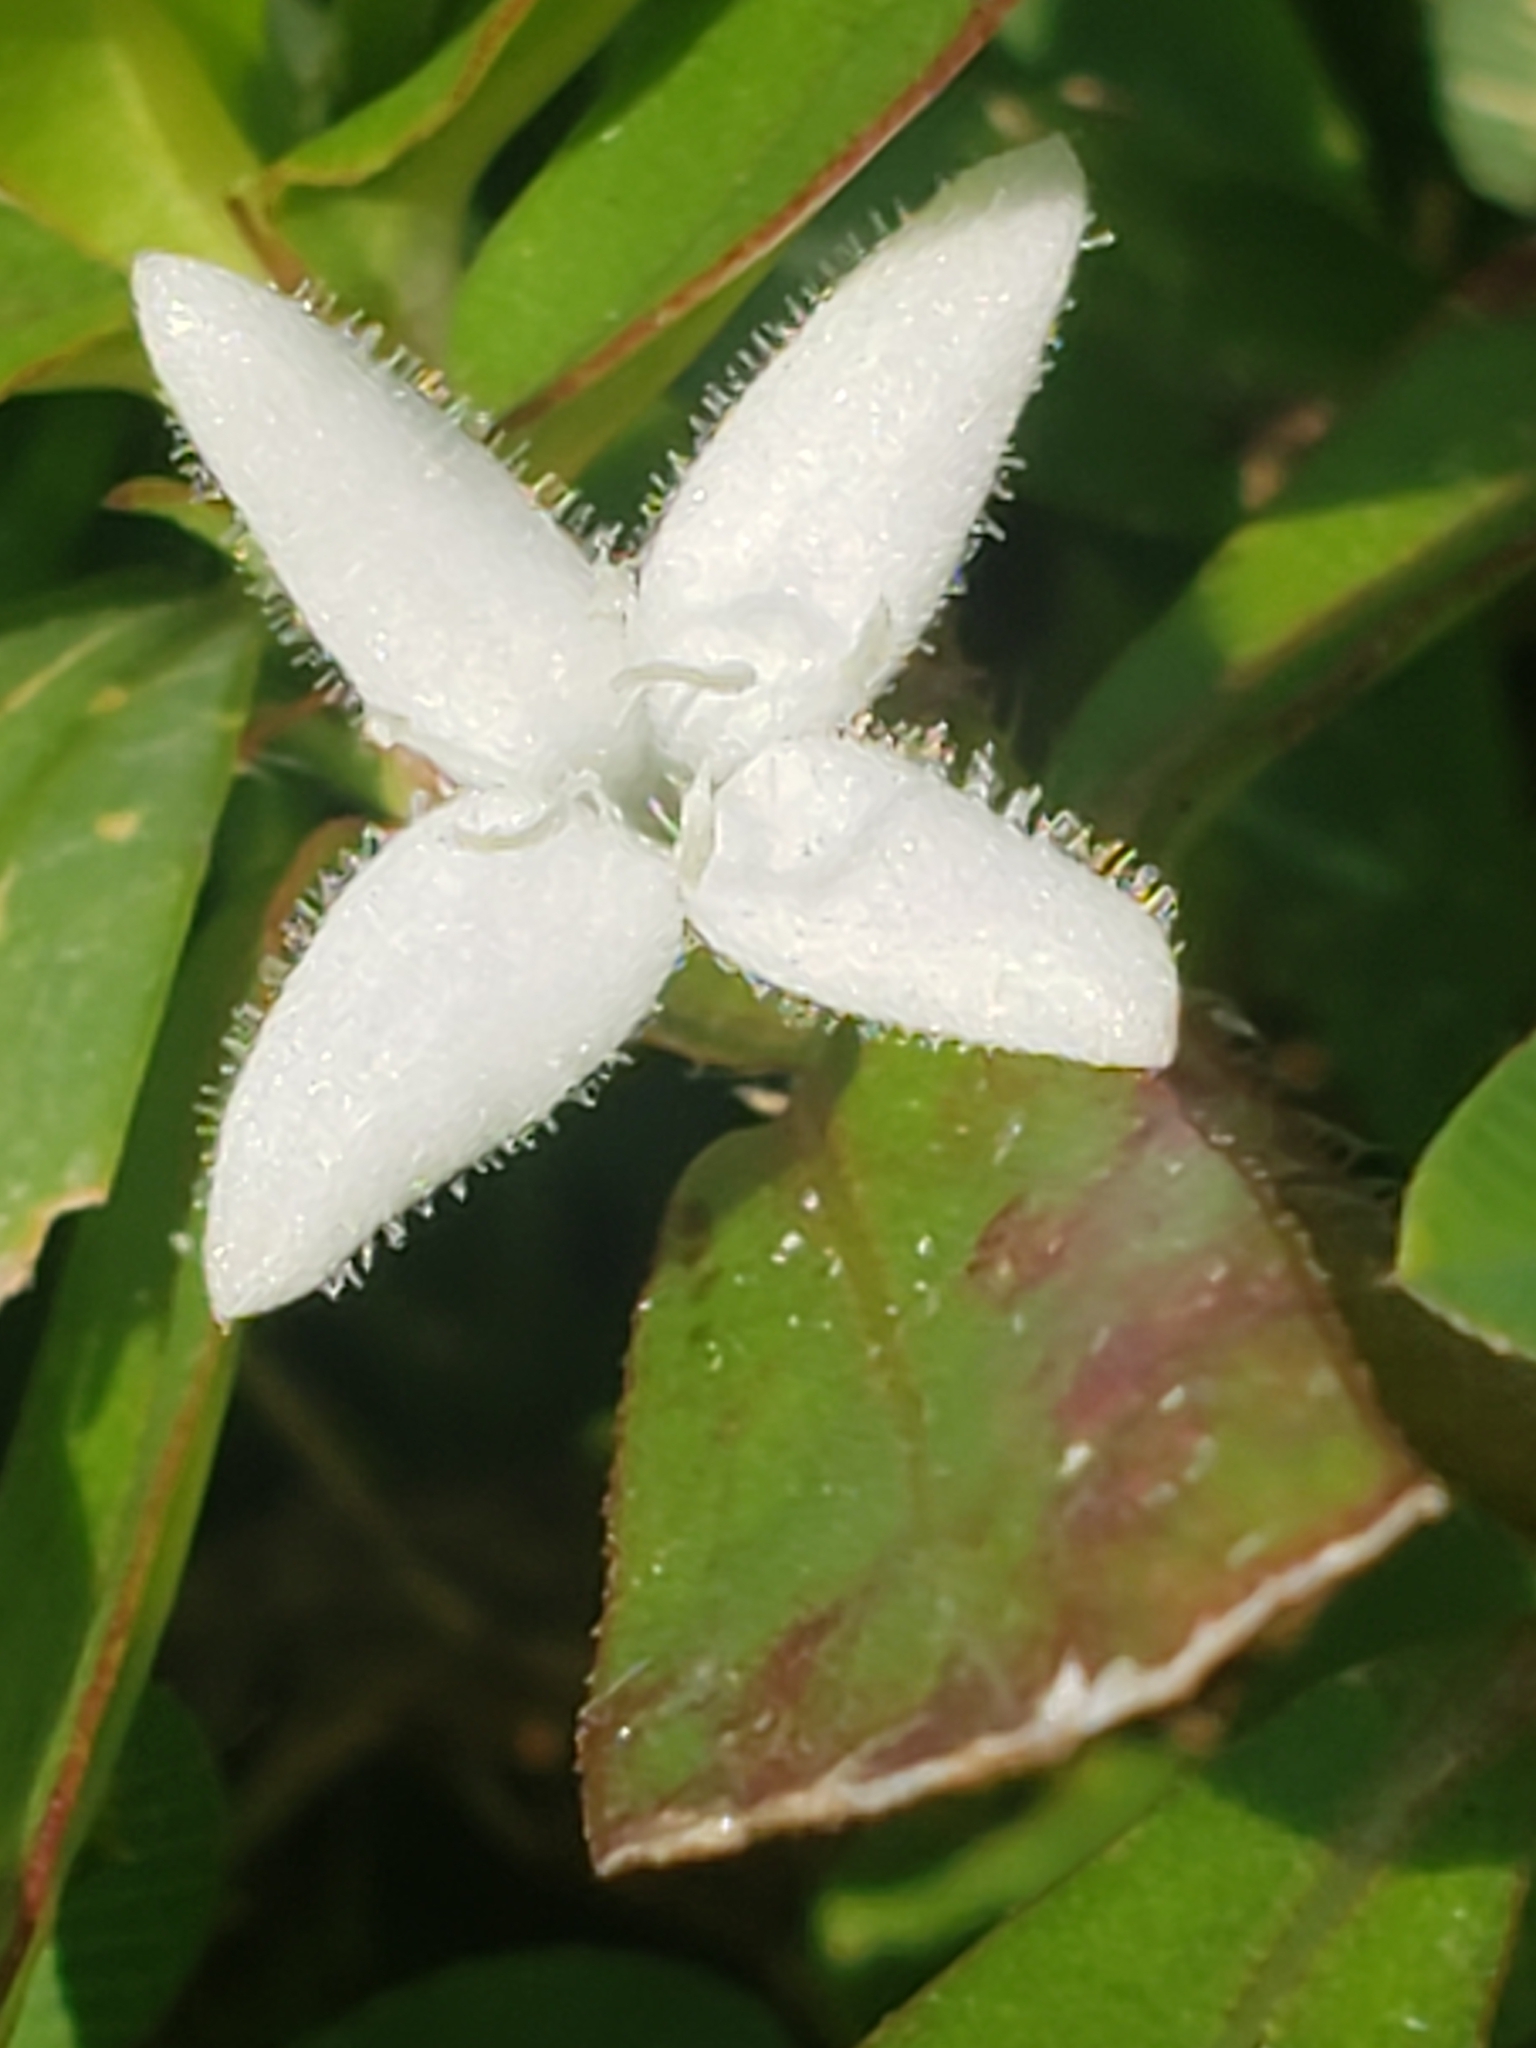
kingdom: Plantae
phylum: Tracheophyta
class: Magnoliopsida
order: Gentianales
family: Rubiaceae
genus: Diodia
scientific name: Diodia virginiana
